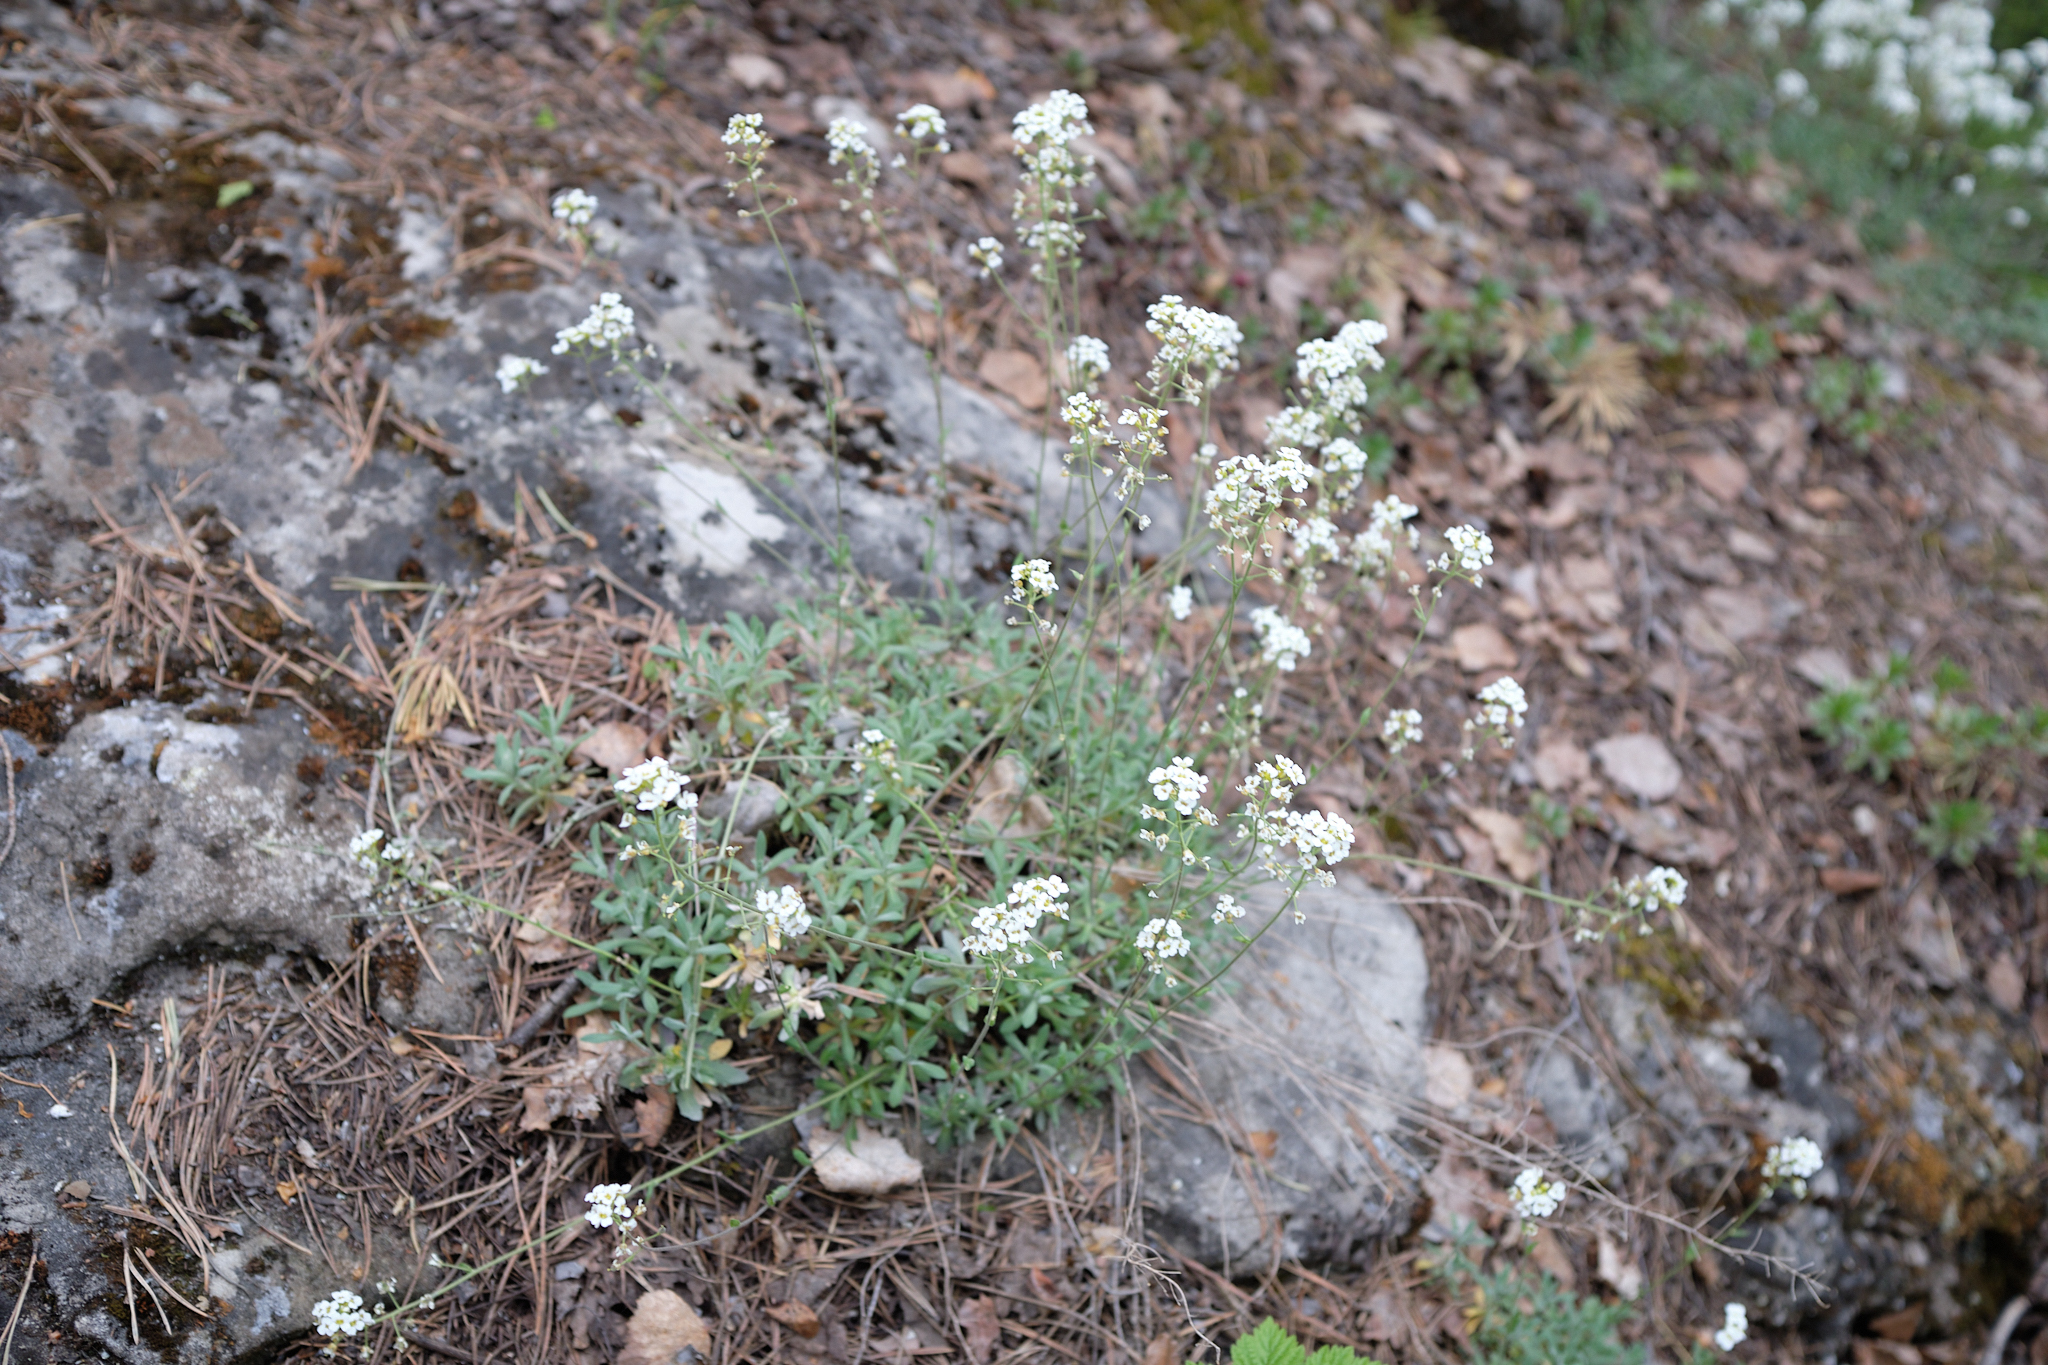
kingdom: Plantae
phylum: Tracheophyta
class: Magnoliopsida
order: Brassicales
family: Brassicaceae
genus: Draba
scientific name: Draba hyperborea
